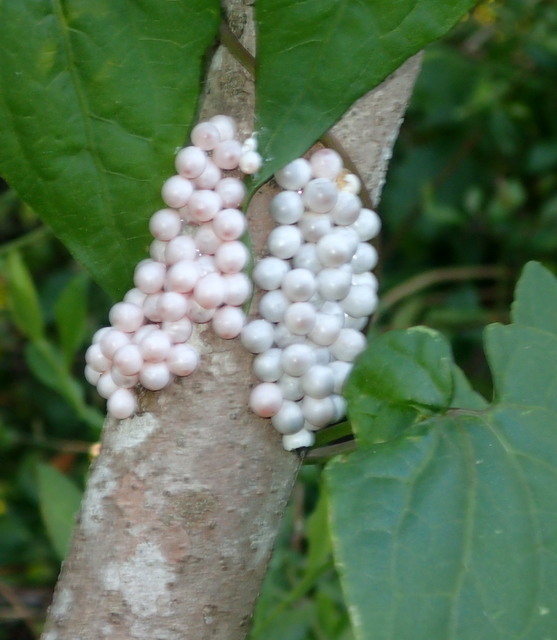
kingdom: Animalia
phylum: Mollusca
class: Gastropoda
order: Architaenioglossa
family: Ampullariidae
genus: Pomacea
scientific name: Pomacea paludosa
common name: Florida applesnail
